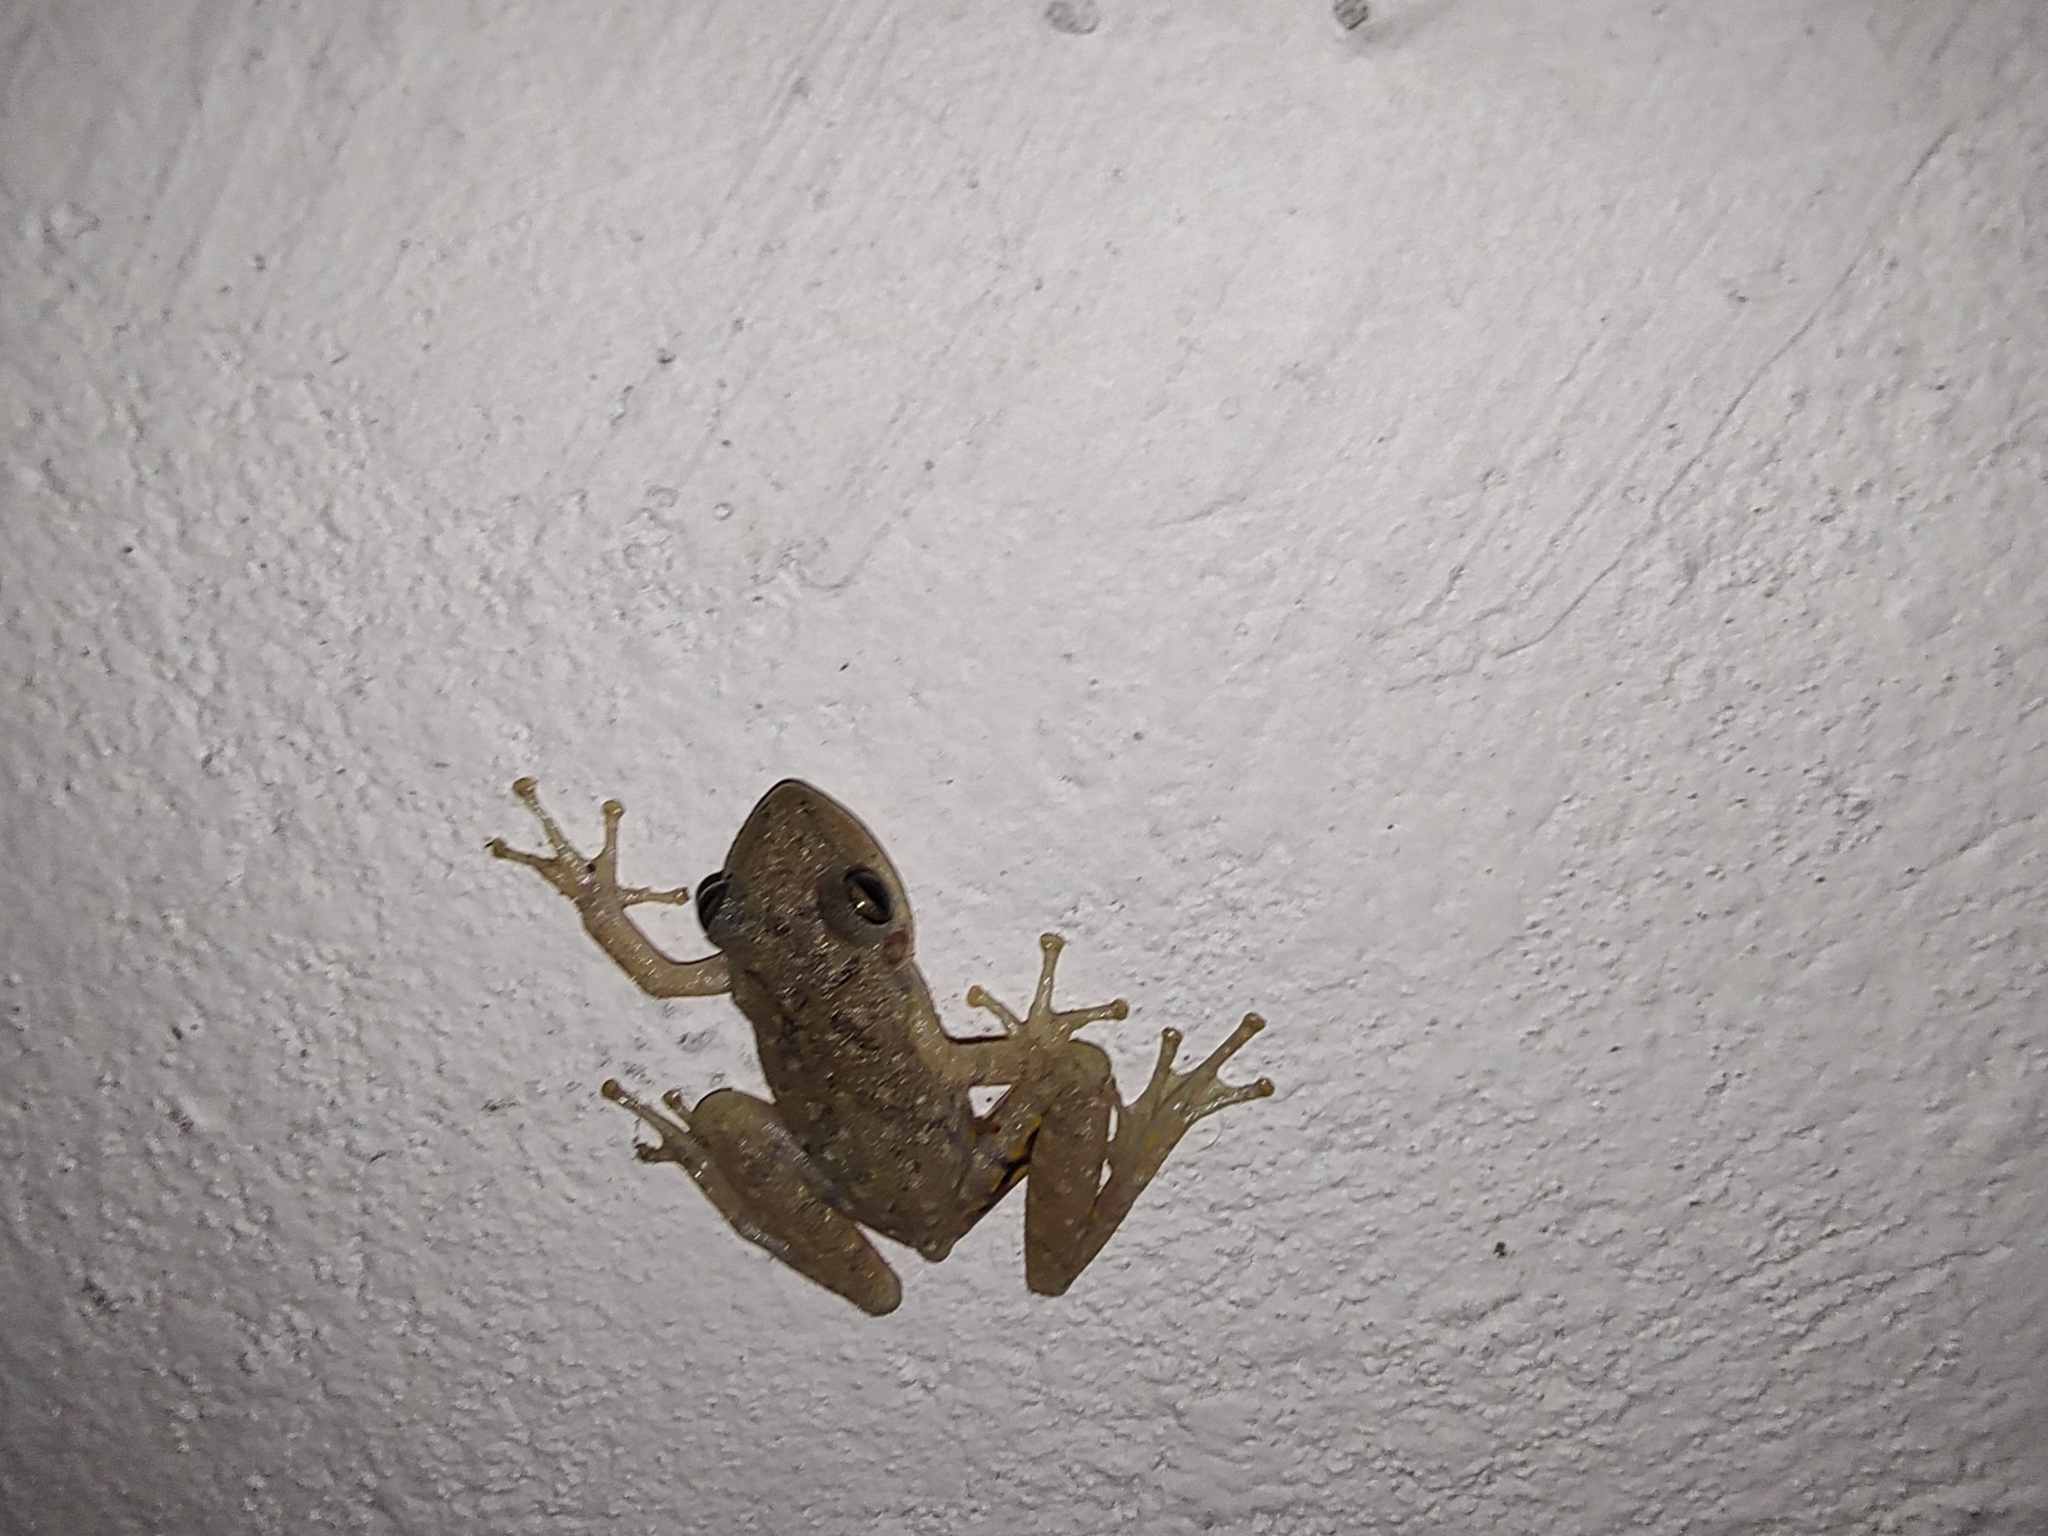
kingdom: Animalia
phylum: Chordata
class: Amphibia
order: Anura
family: Hylidae
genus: Scinax
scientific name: Scinax granulatus
